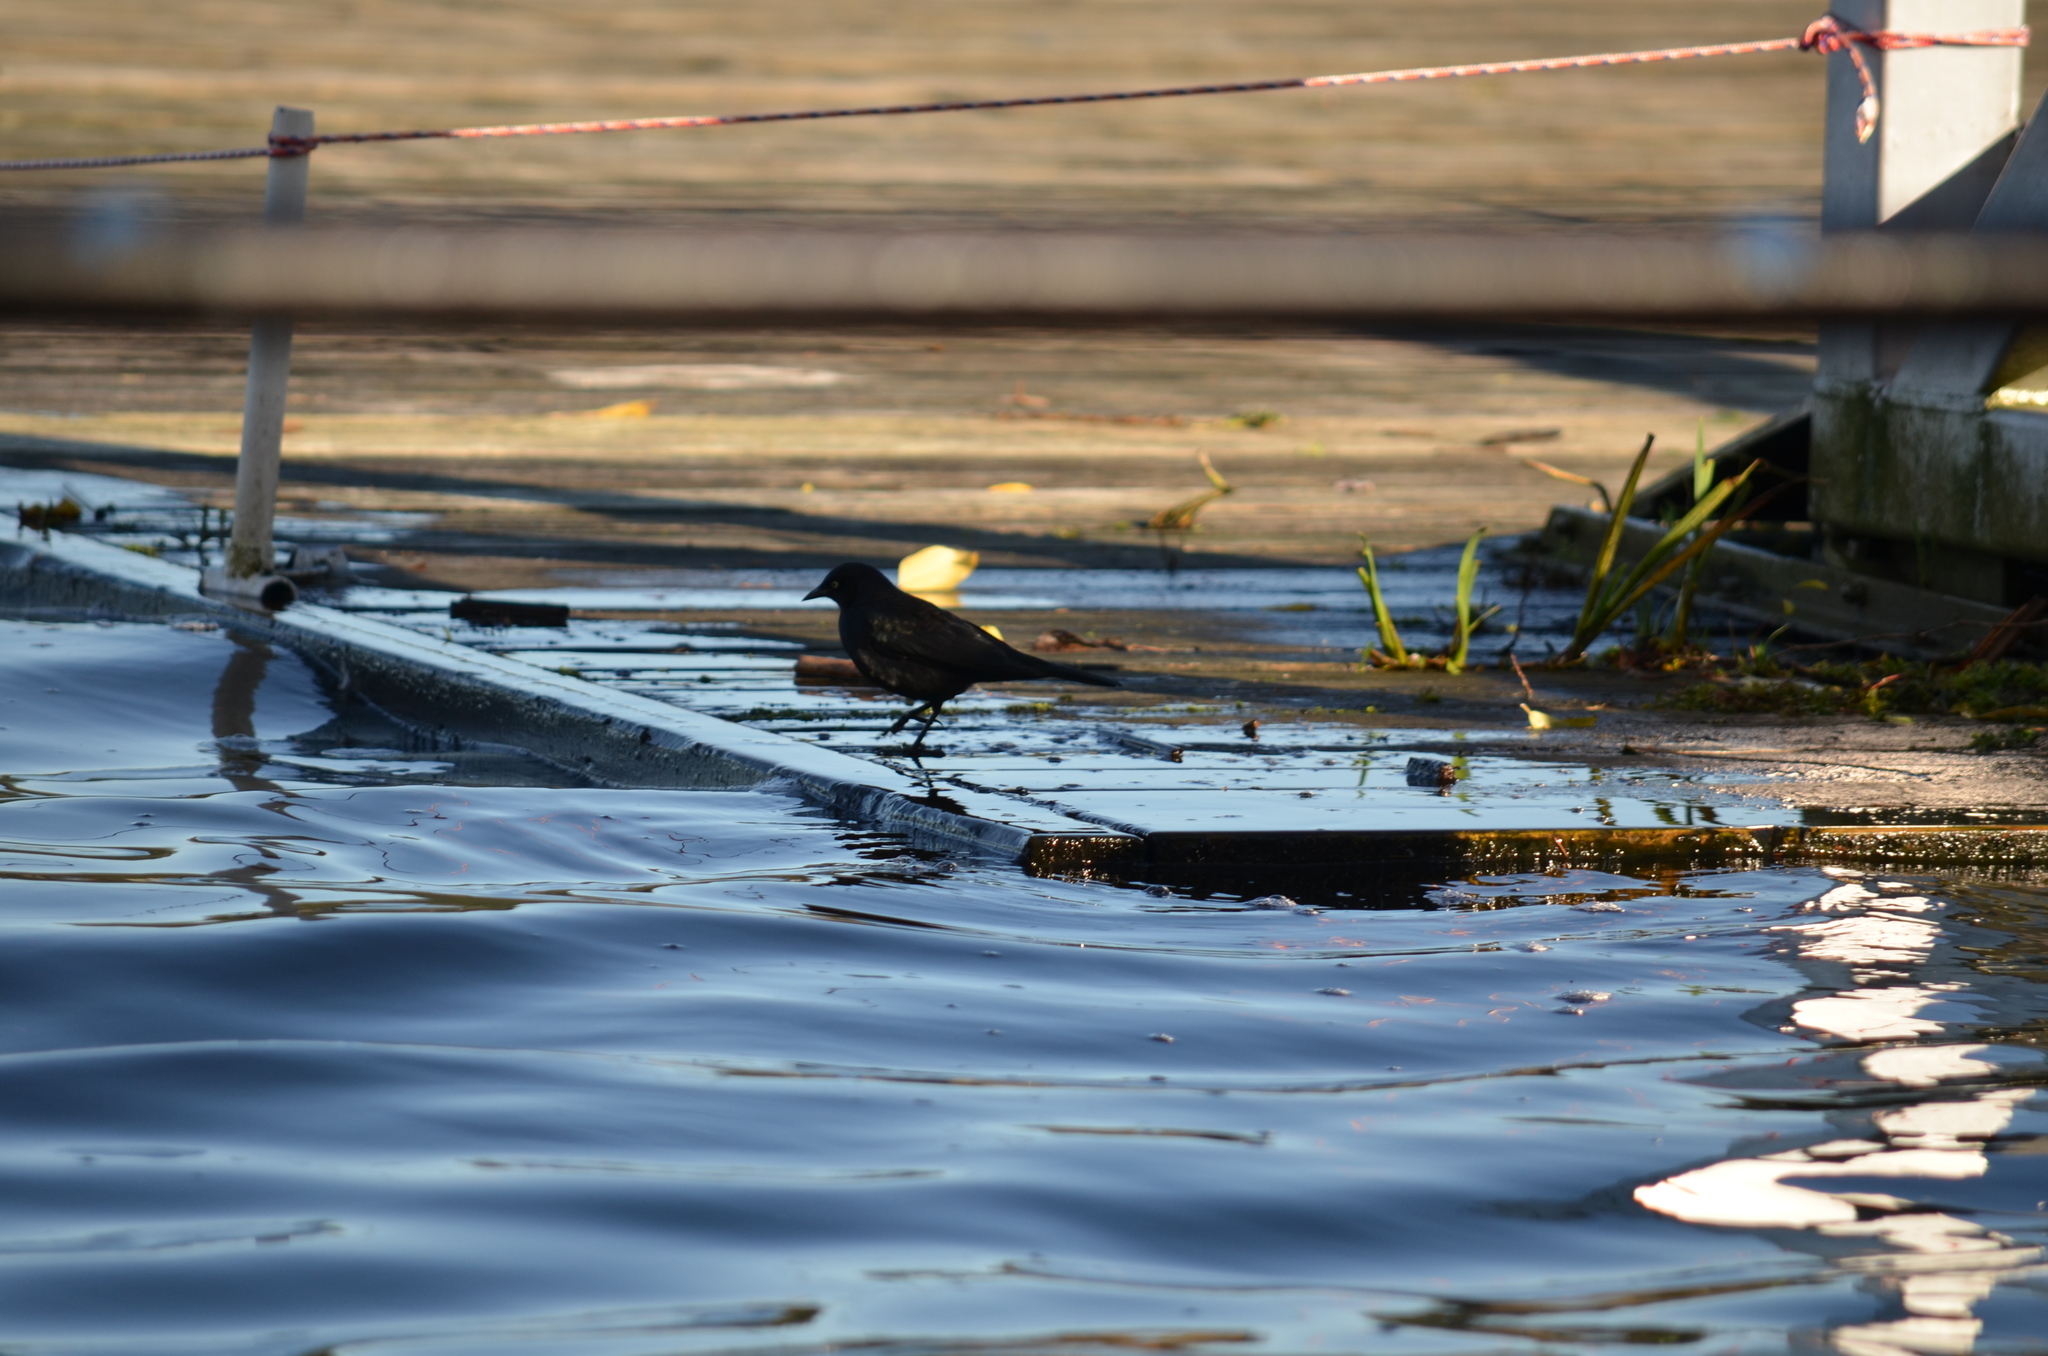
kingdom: Animalia
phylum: Chordata
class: Aves
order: Passeriformes
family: Icteridae
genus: Euphagus
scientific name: Euphagus cyanocephalus
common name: Brewer's blackbird
